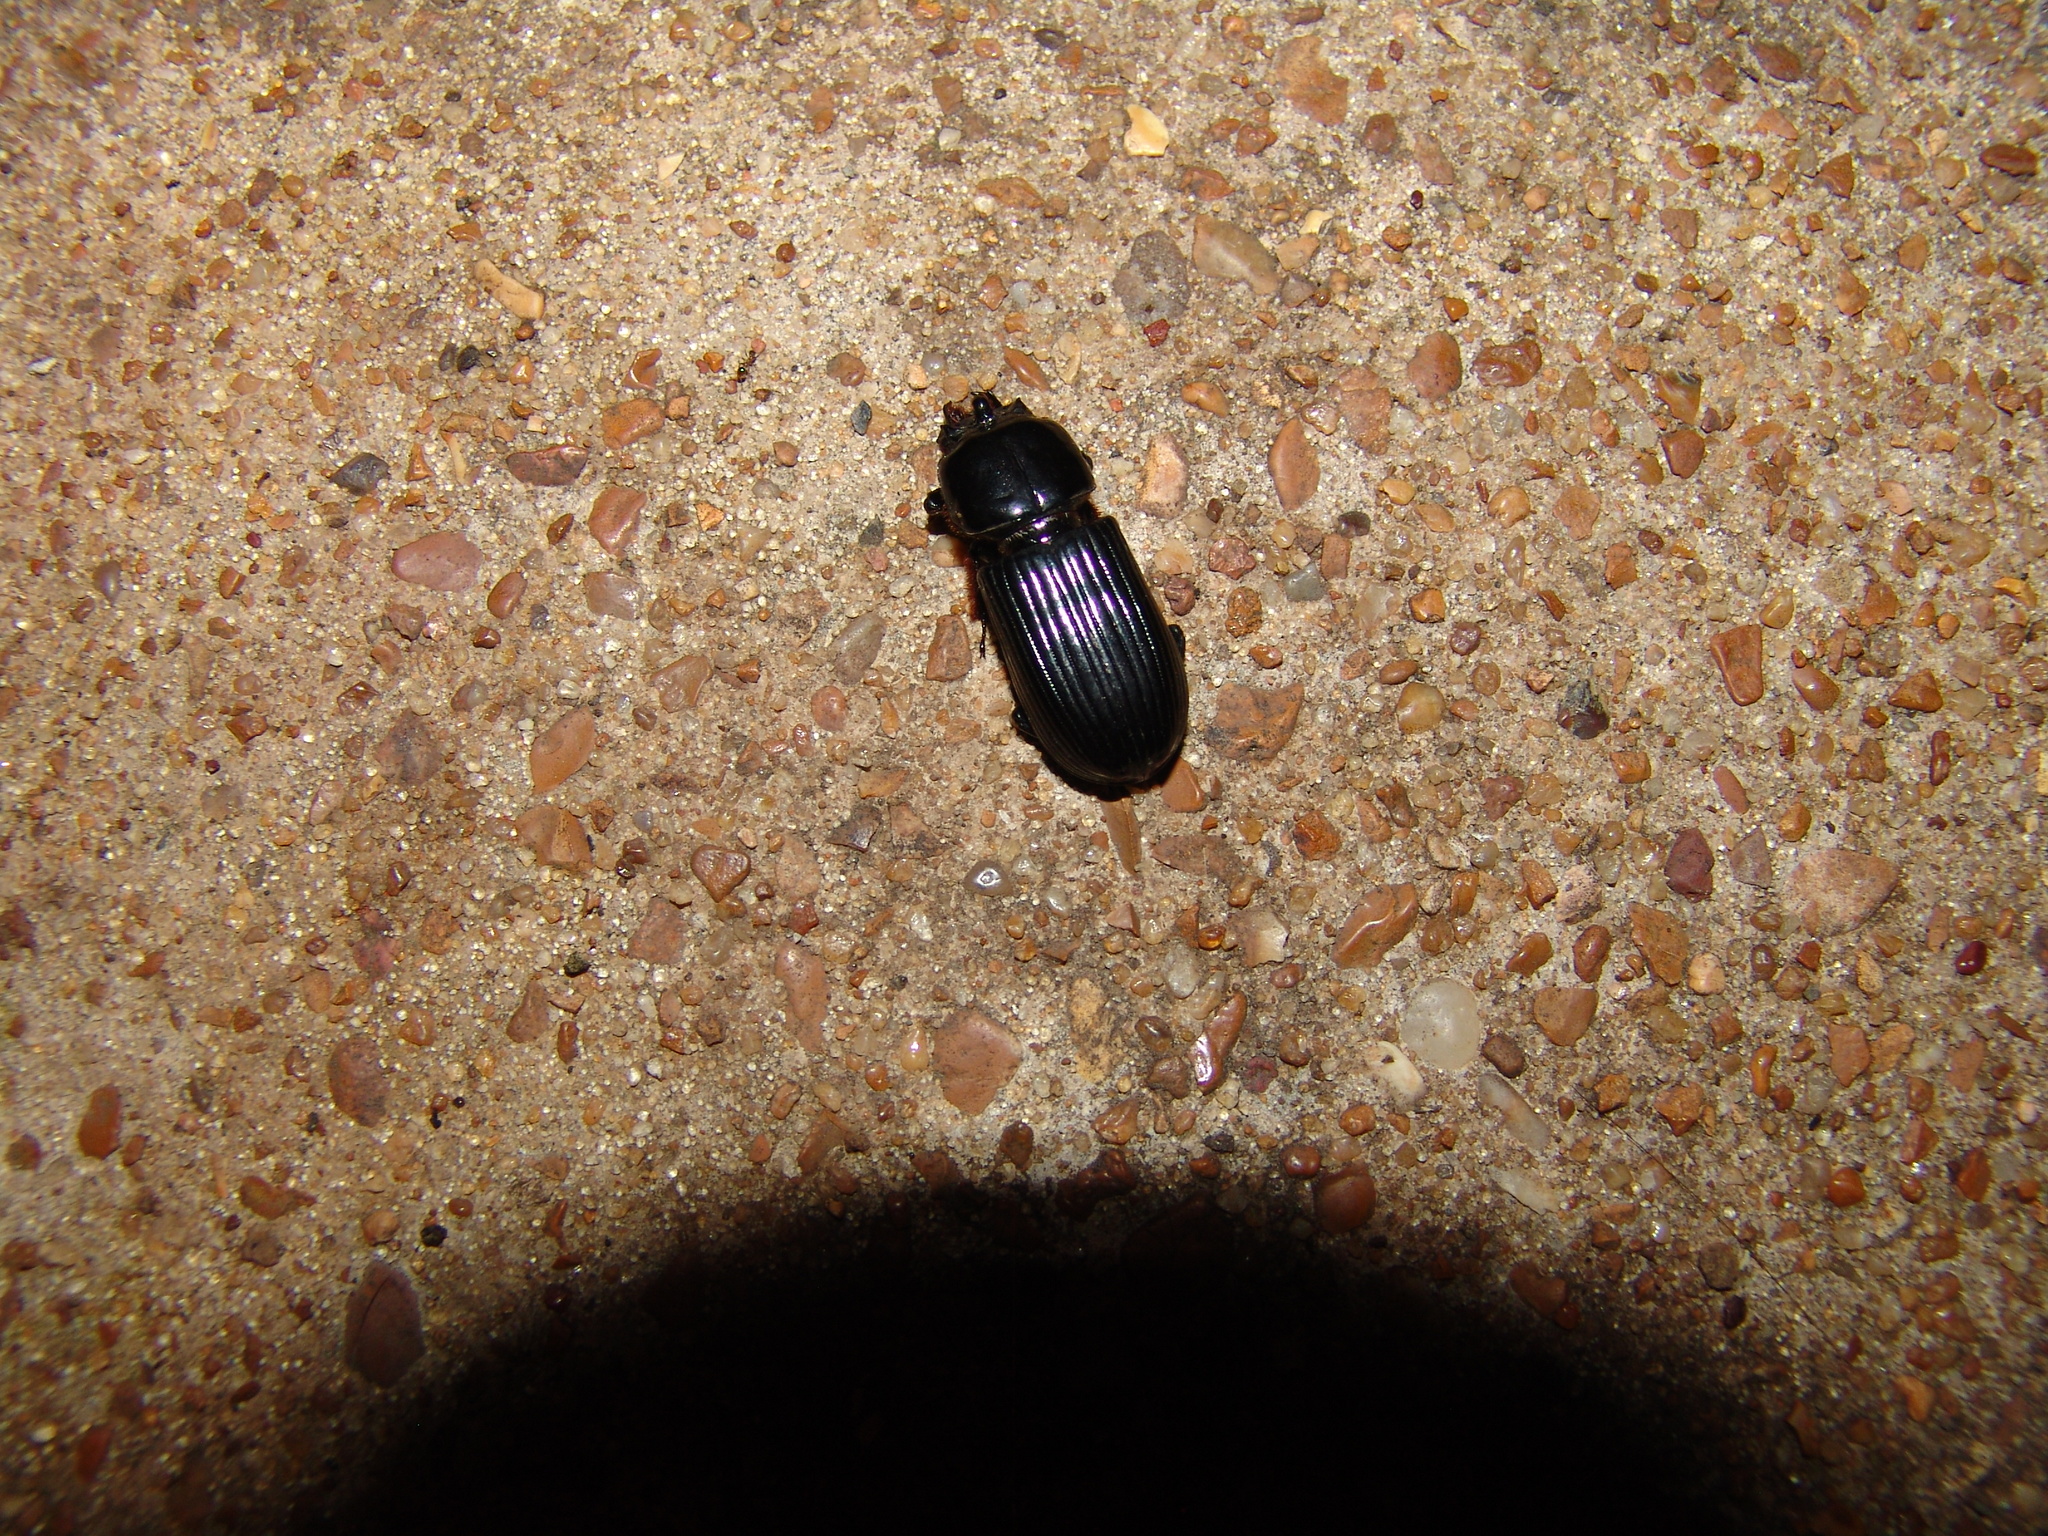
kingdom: Animalia
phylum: Arthropoda
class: Insecta
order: Coleoptera
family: Passalidae
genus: Odontotaenius
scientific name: Odontotaenius disjunctus
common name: Patent leather beetle
